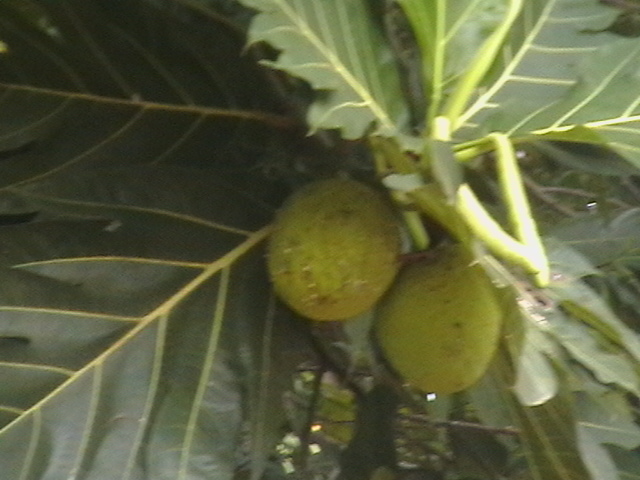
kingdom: Plantae
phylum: Tracheophyta
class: Magnoliopsida
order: Rosales
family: Moraceae
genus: Artocarpus
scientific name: Artocarpus altilis
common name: Breadfruit
